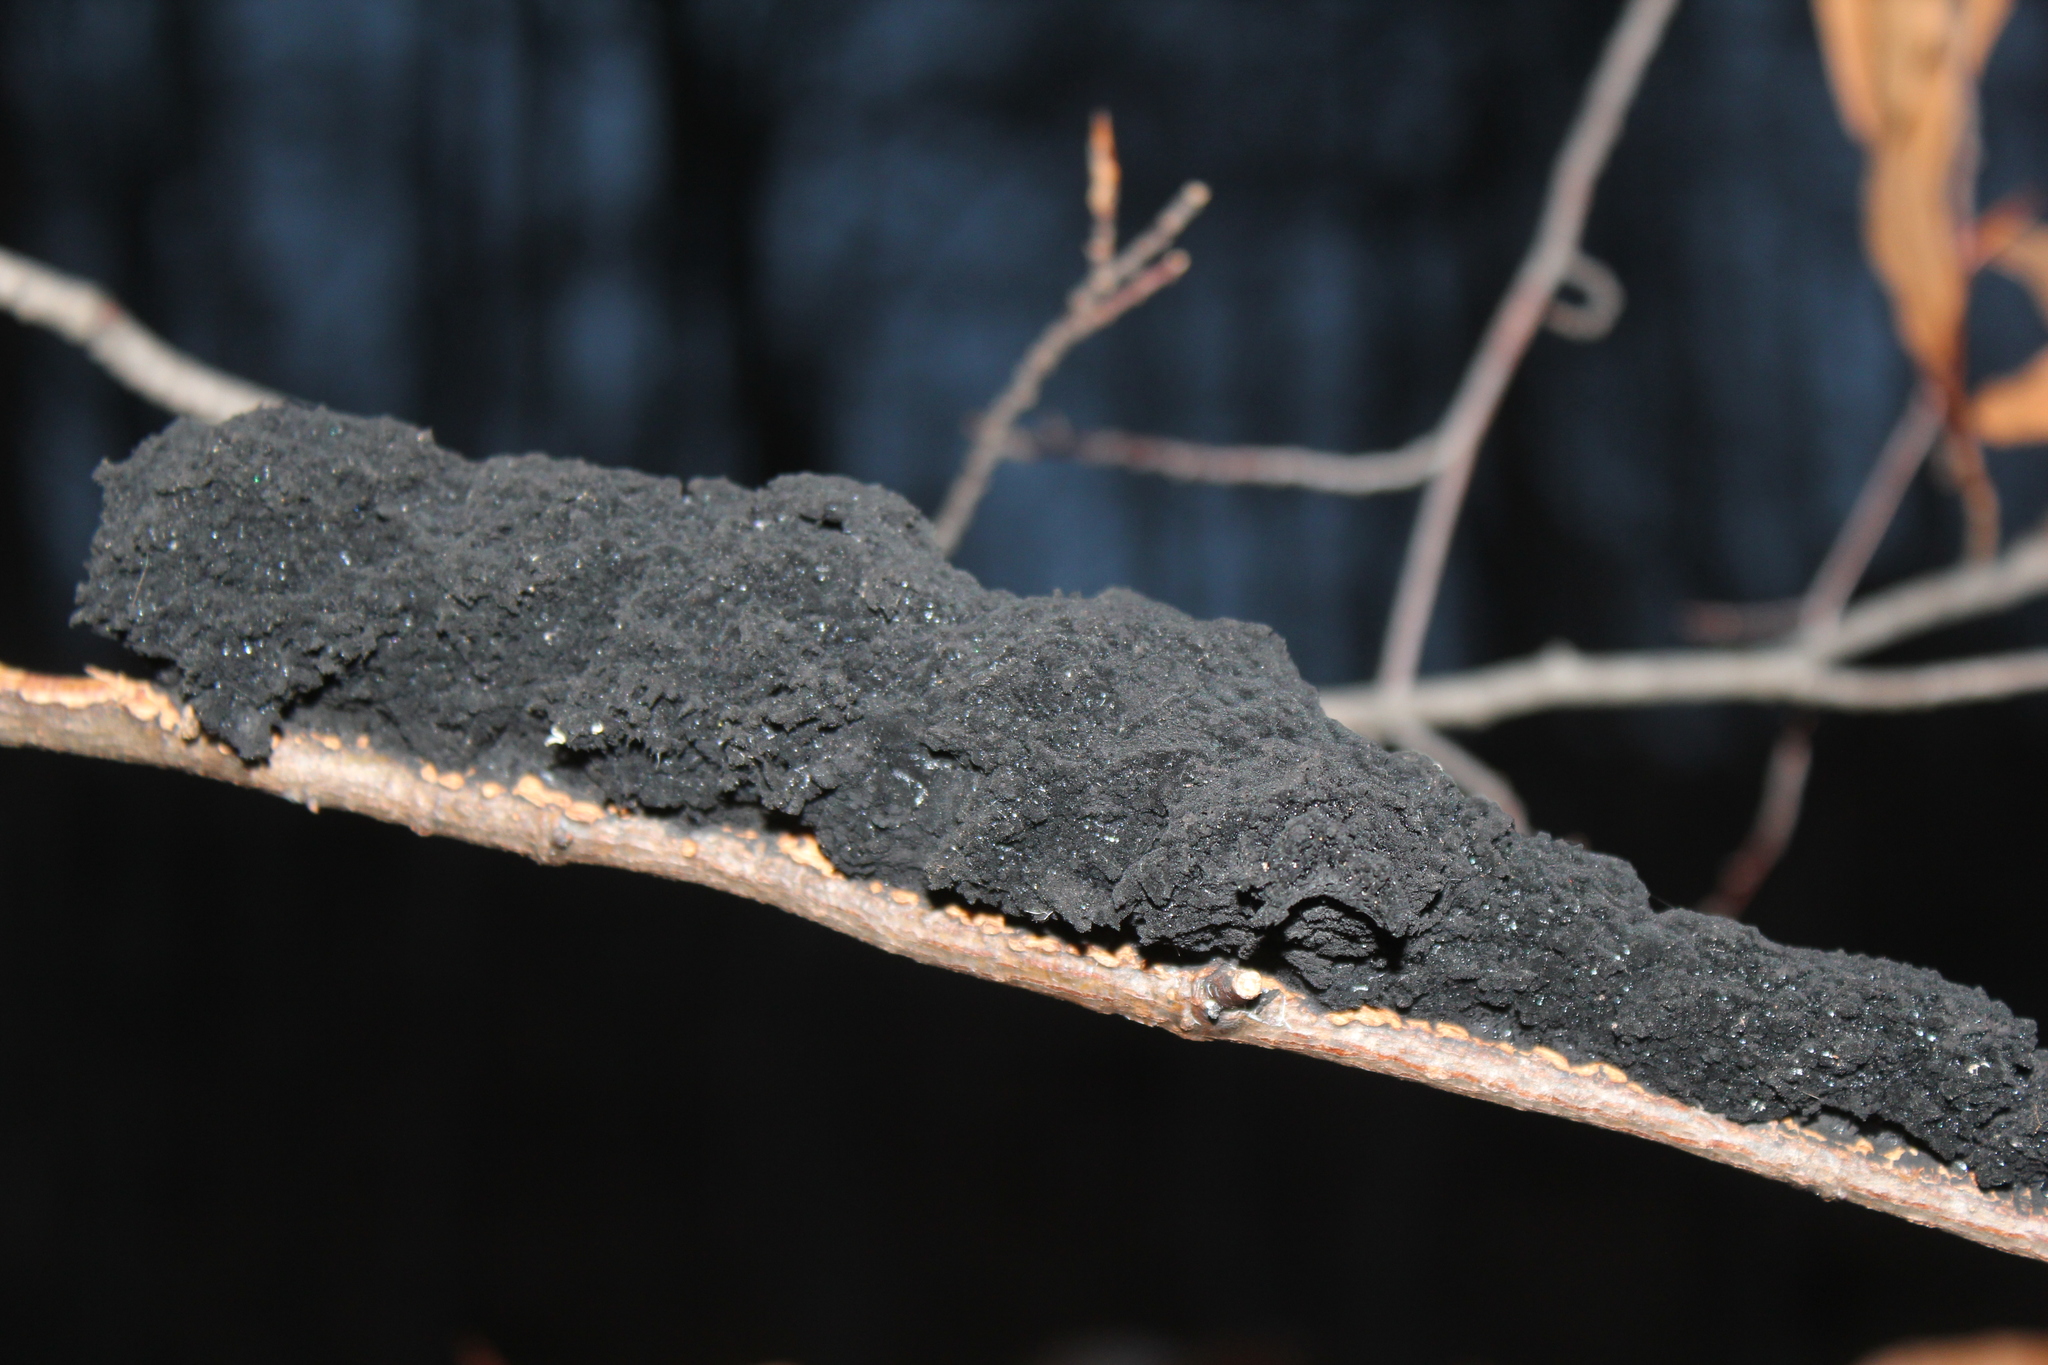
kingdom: Fungi
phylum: Ascomycota
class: Dothideomycetes
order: Capnodiales
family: Capnodiaceae
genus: Scorias
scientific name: Scorias spongiosa
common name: Black sooty mold
